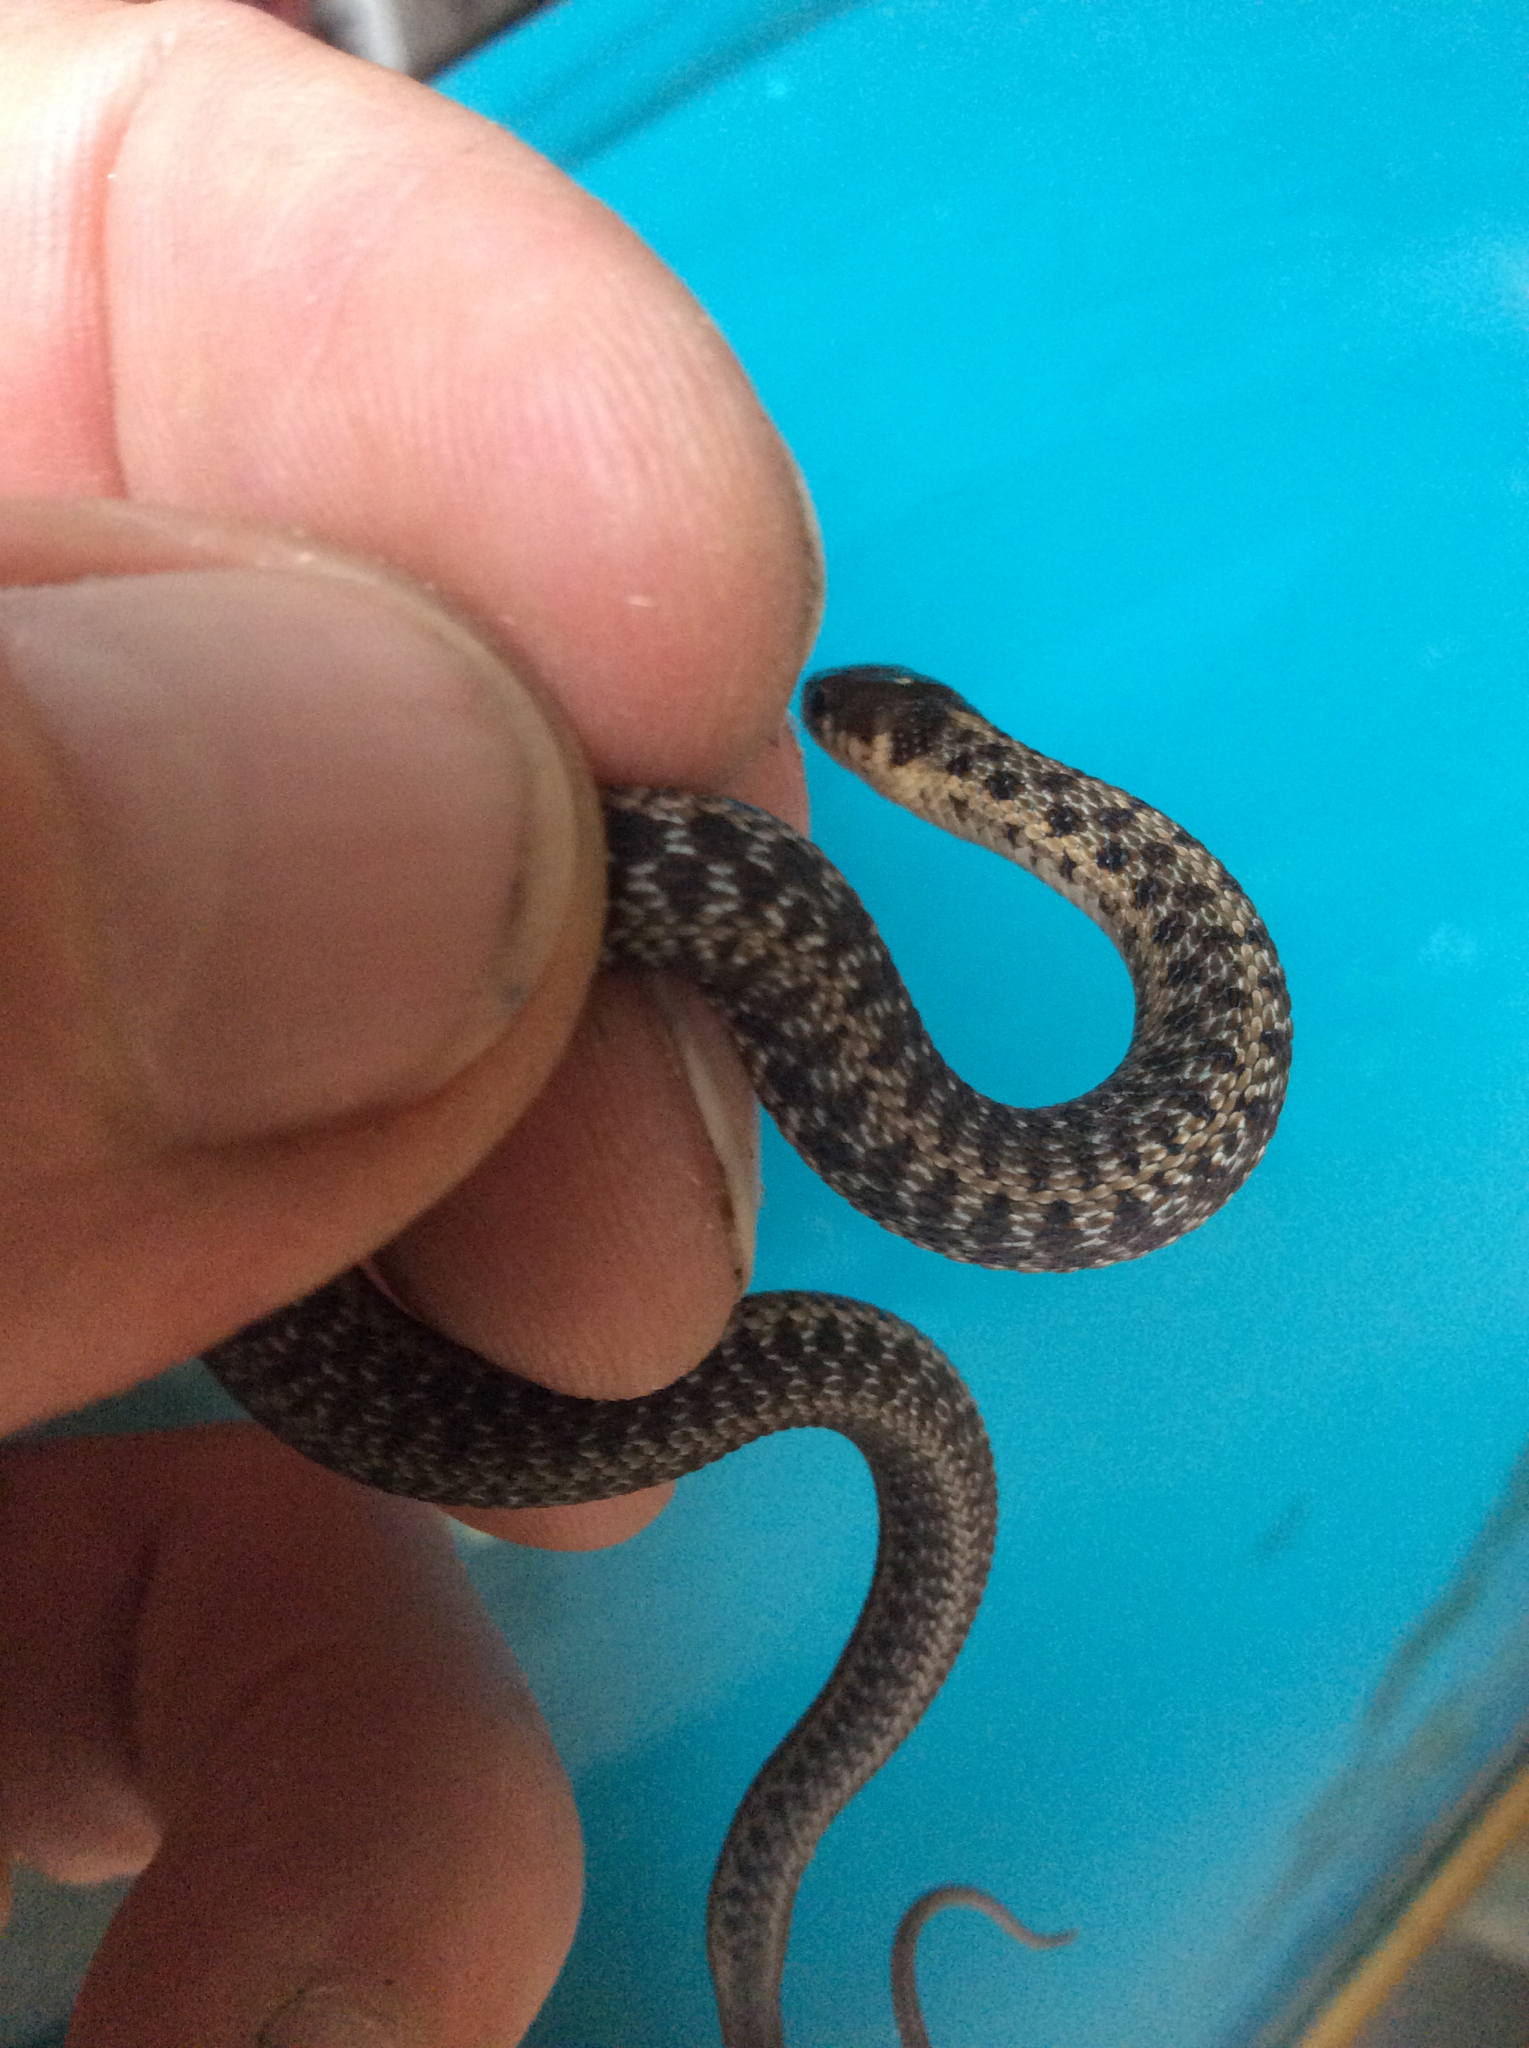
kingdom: Animalia
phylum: Chordata
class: Squamata
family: Colubridae
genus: Thamnophis
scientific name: Thamnophis sirtalis
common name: Common garter snake
